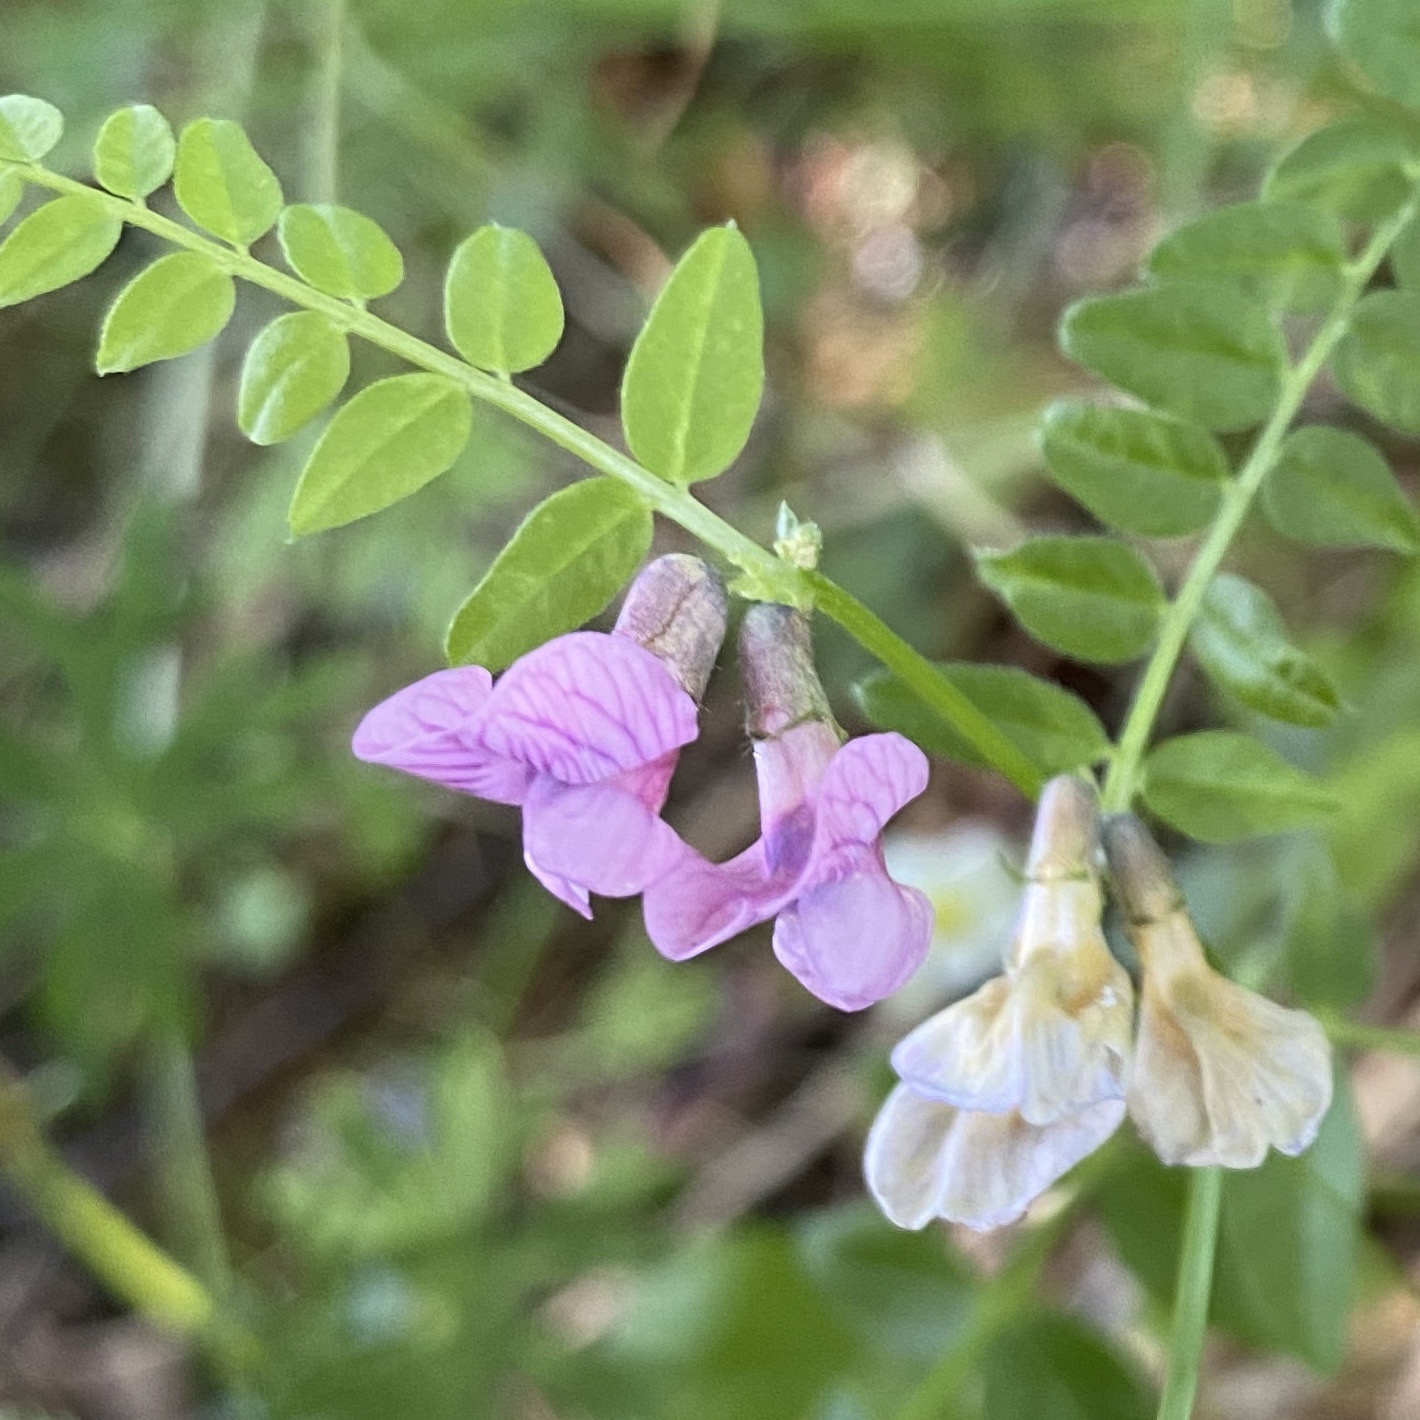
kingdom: Plantae
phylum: Tracheophyta
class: Magnoliopsida
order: Fabales
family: Fabaceae
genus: Vicia
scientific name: Vicia sepium
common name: Bush vetch
